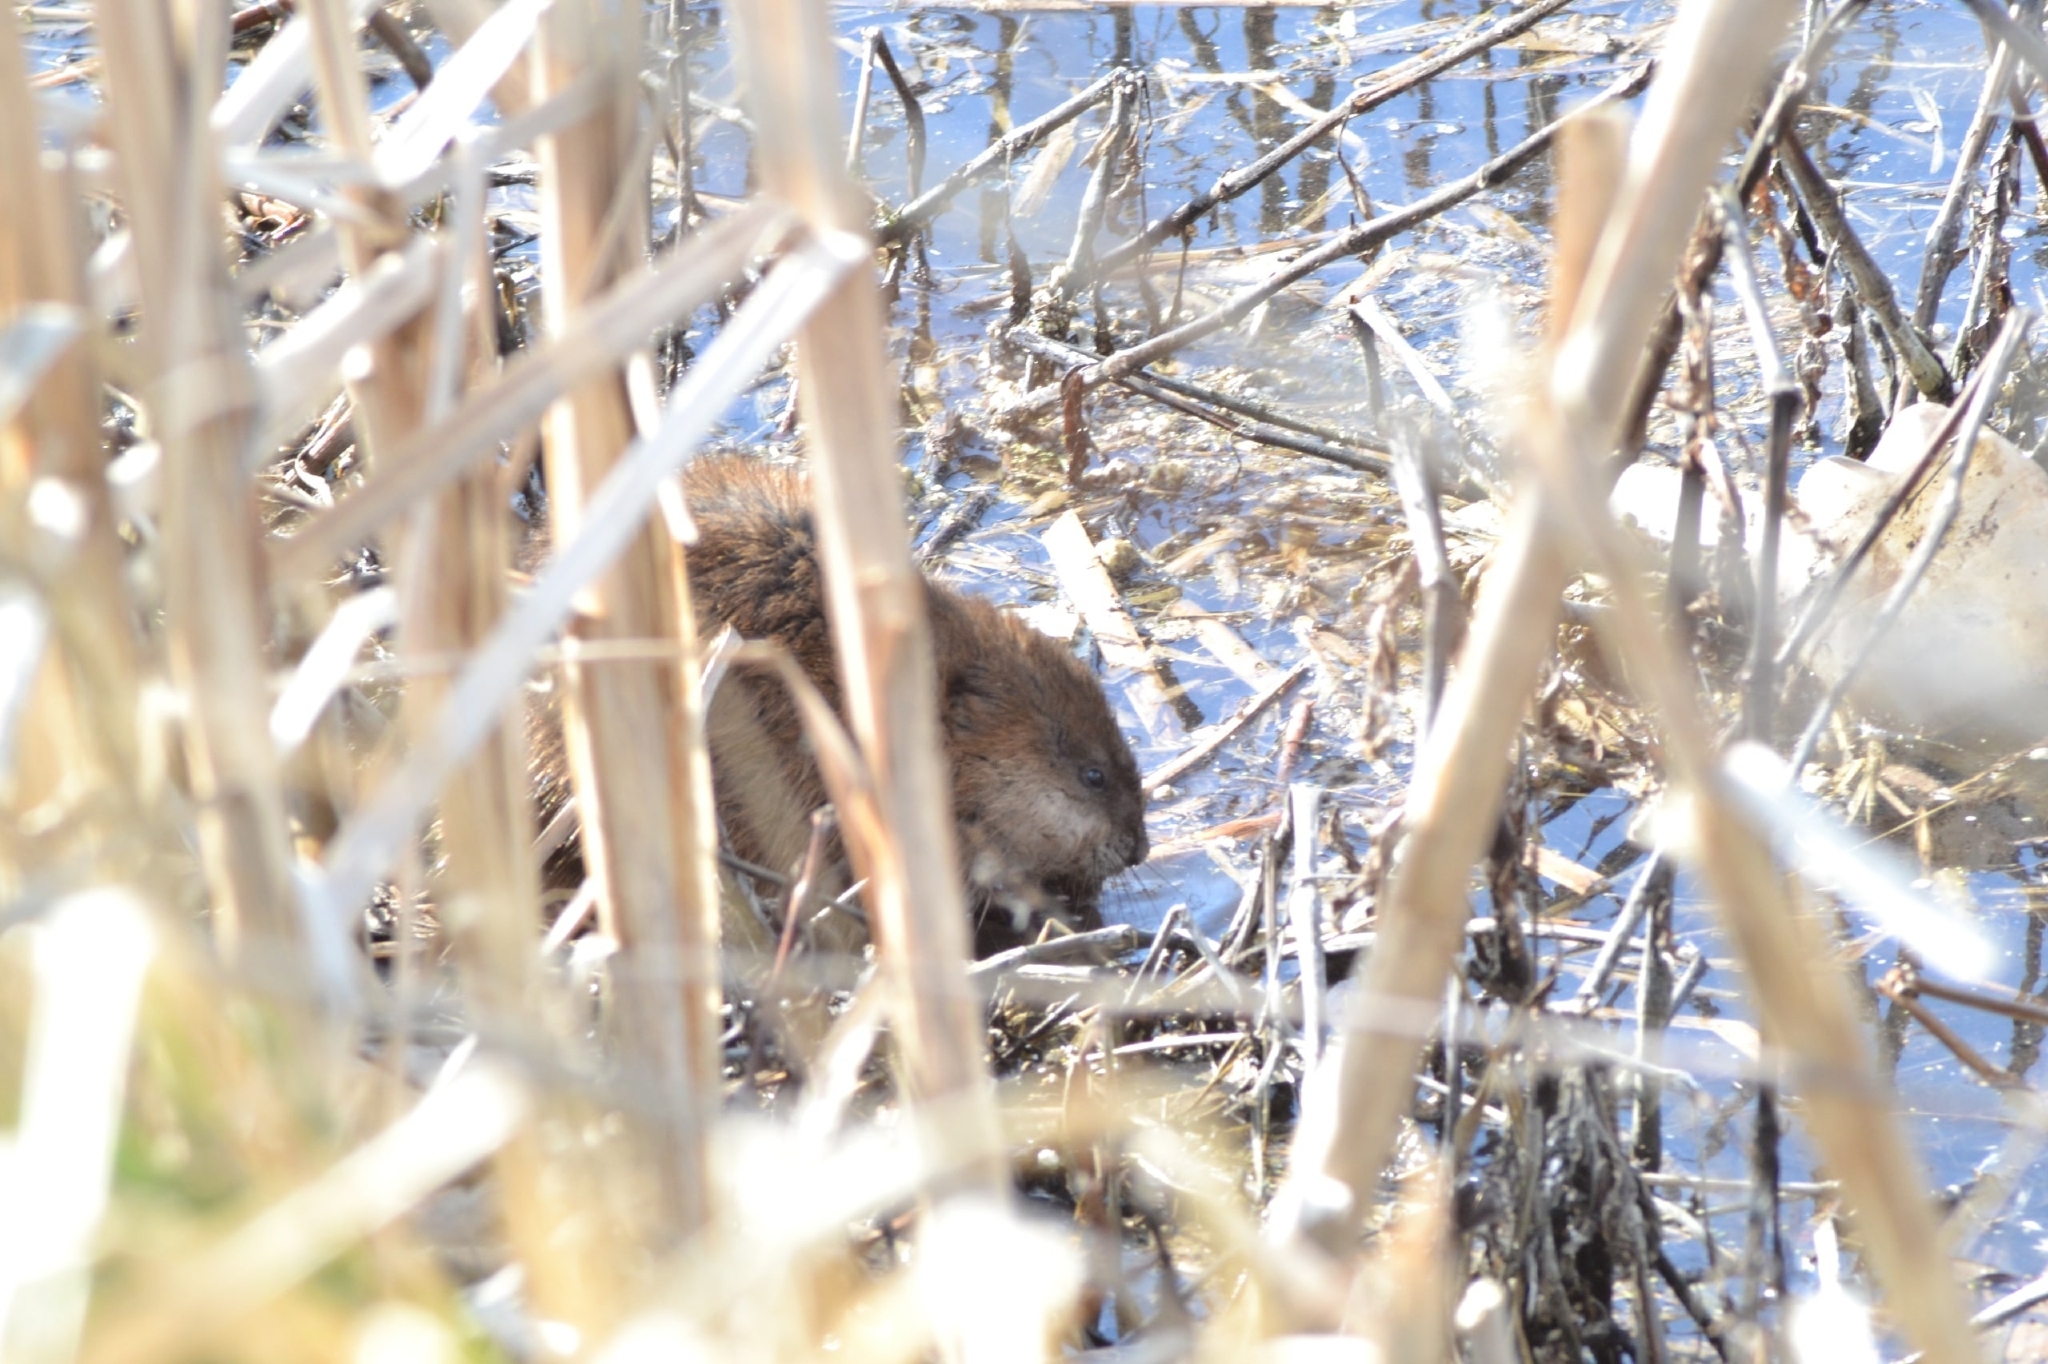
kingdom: Animalia
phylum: Chordata
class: Mammalia
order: Rodentia
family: Cricetidae
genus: Ondatra
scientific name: Ondatra zibethicus
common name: Muskrat
